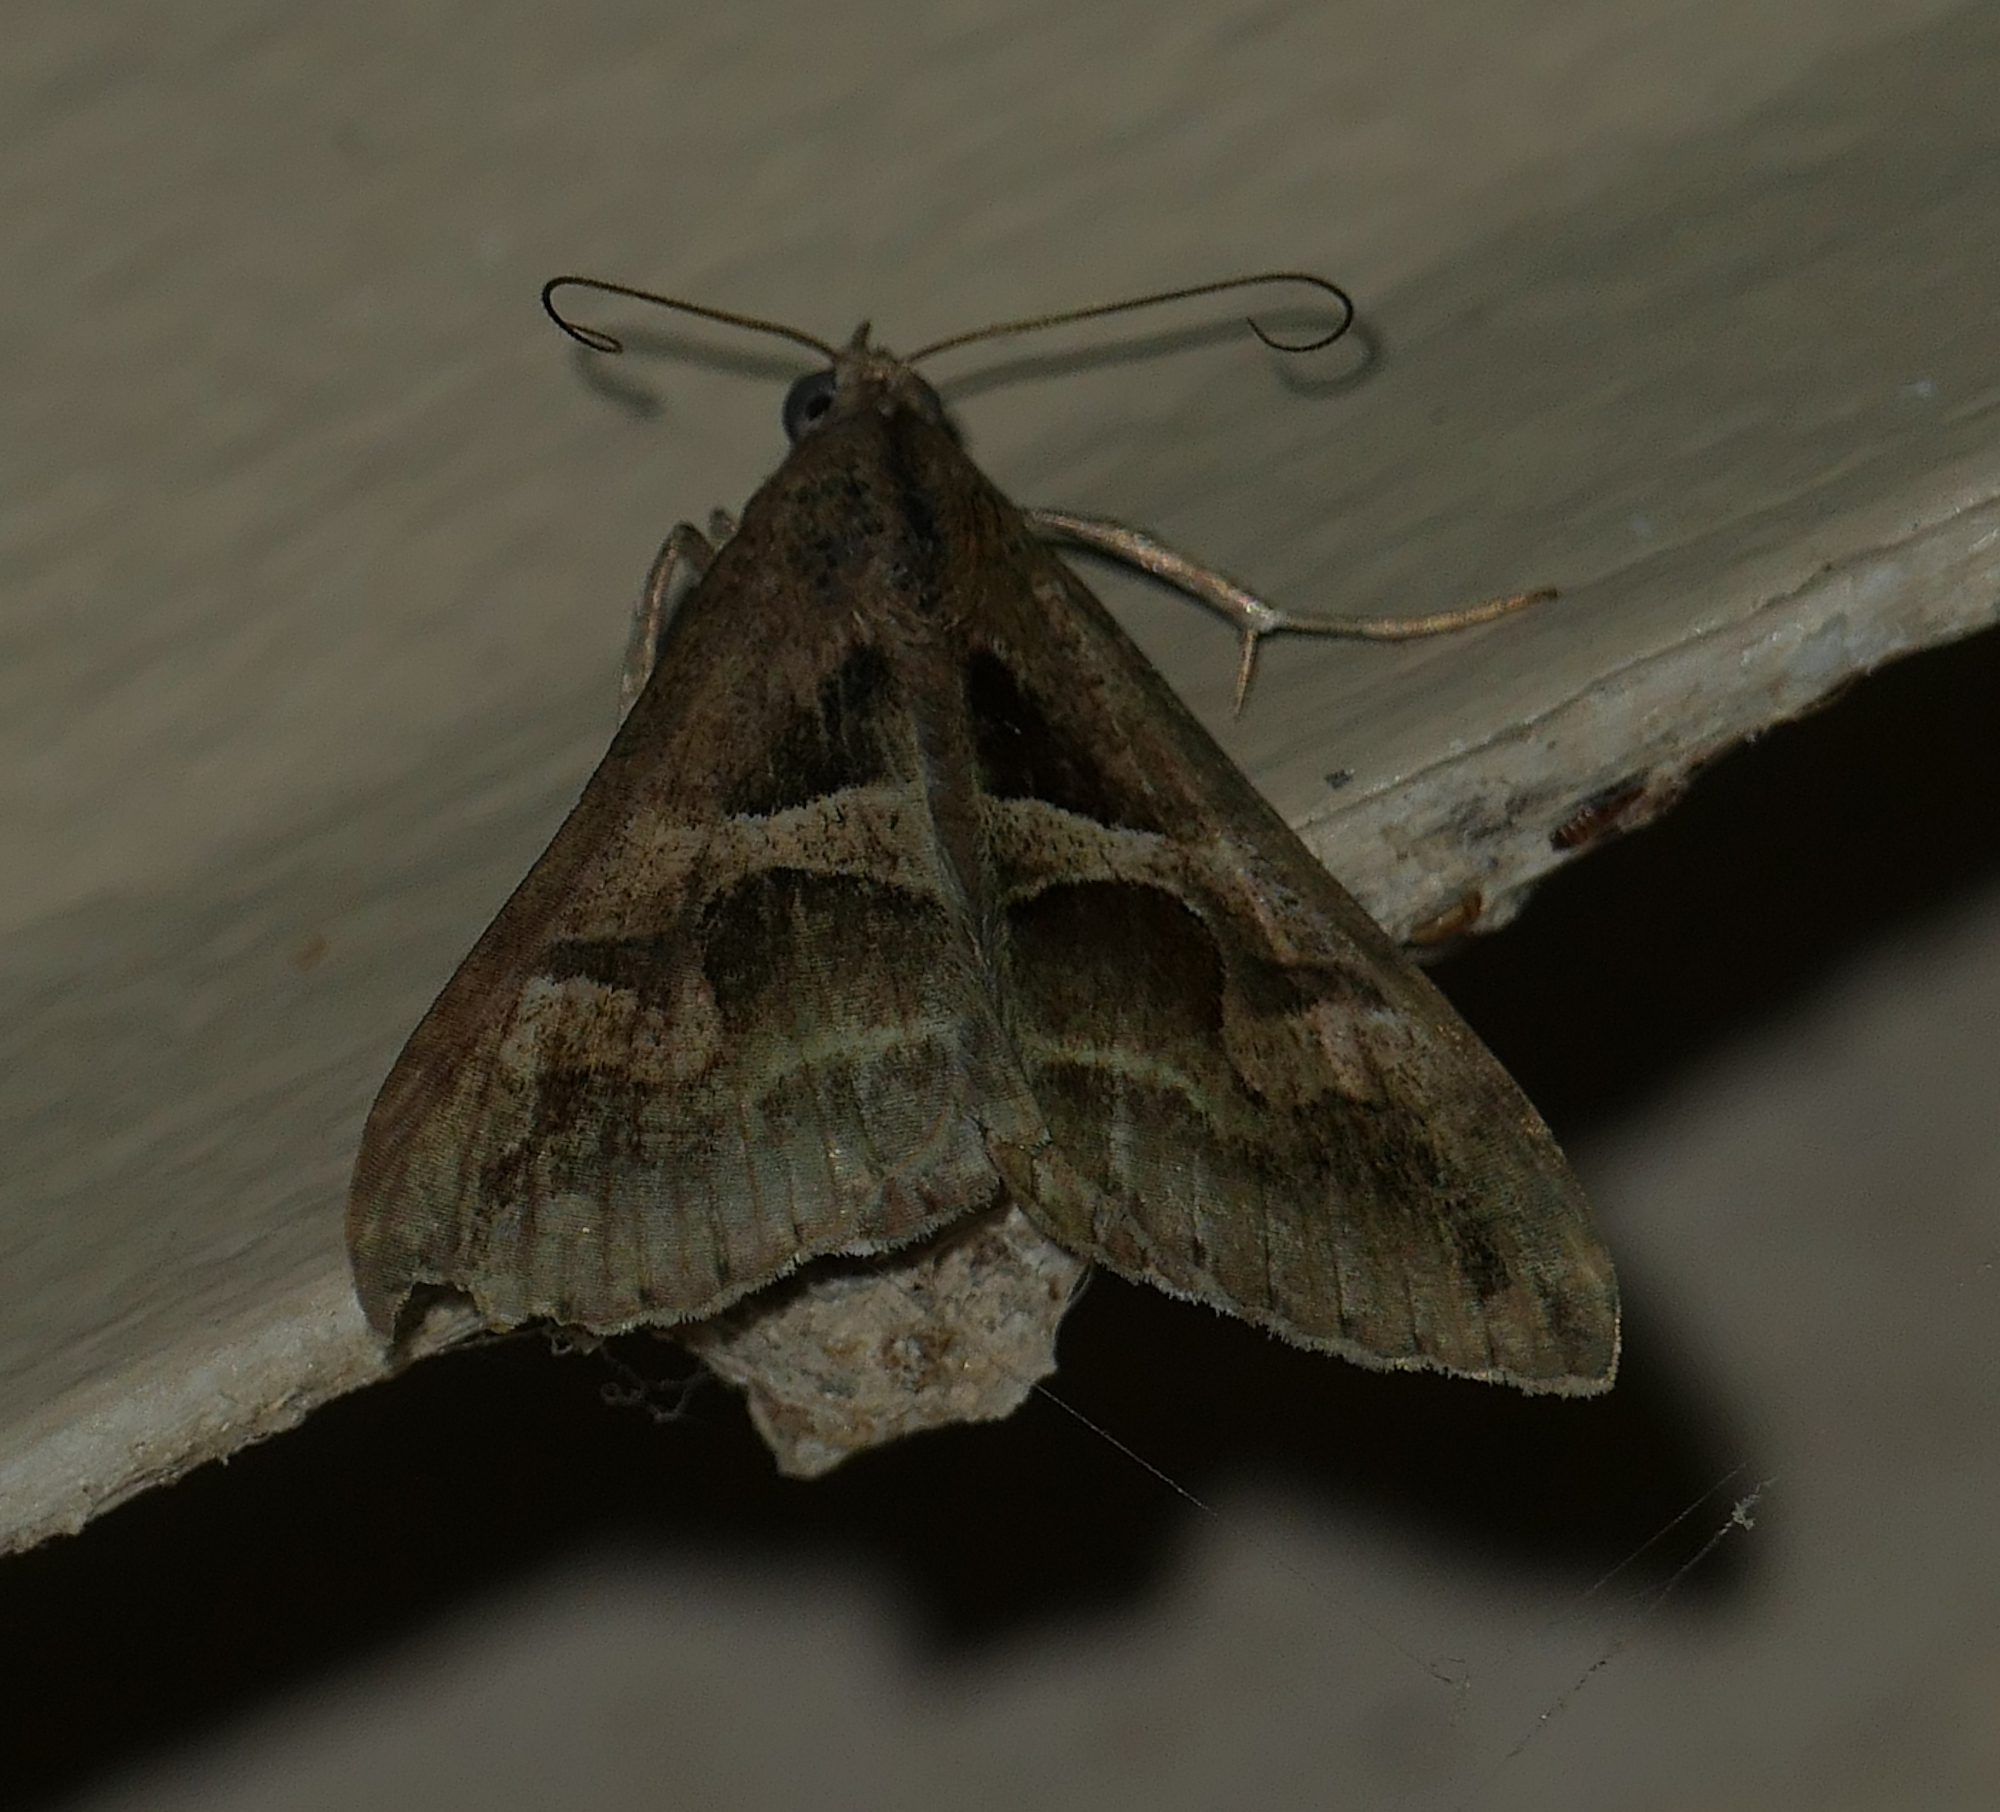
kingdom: Animalia
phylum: Arthropoda
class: Insecta
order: Lepidoptera
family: Erebidae
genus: Melipotis
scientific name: Melipotis cellaris
